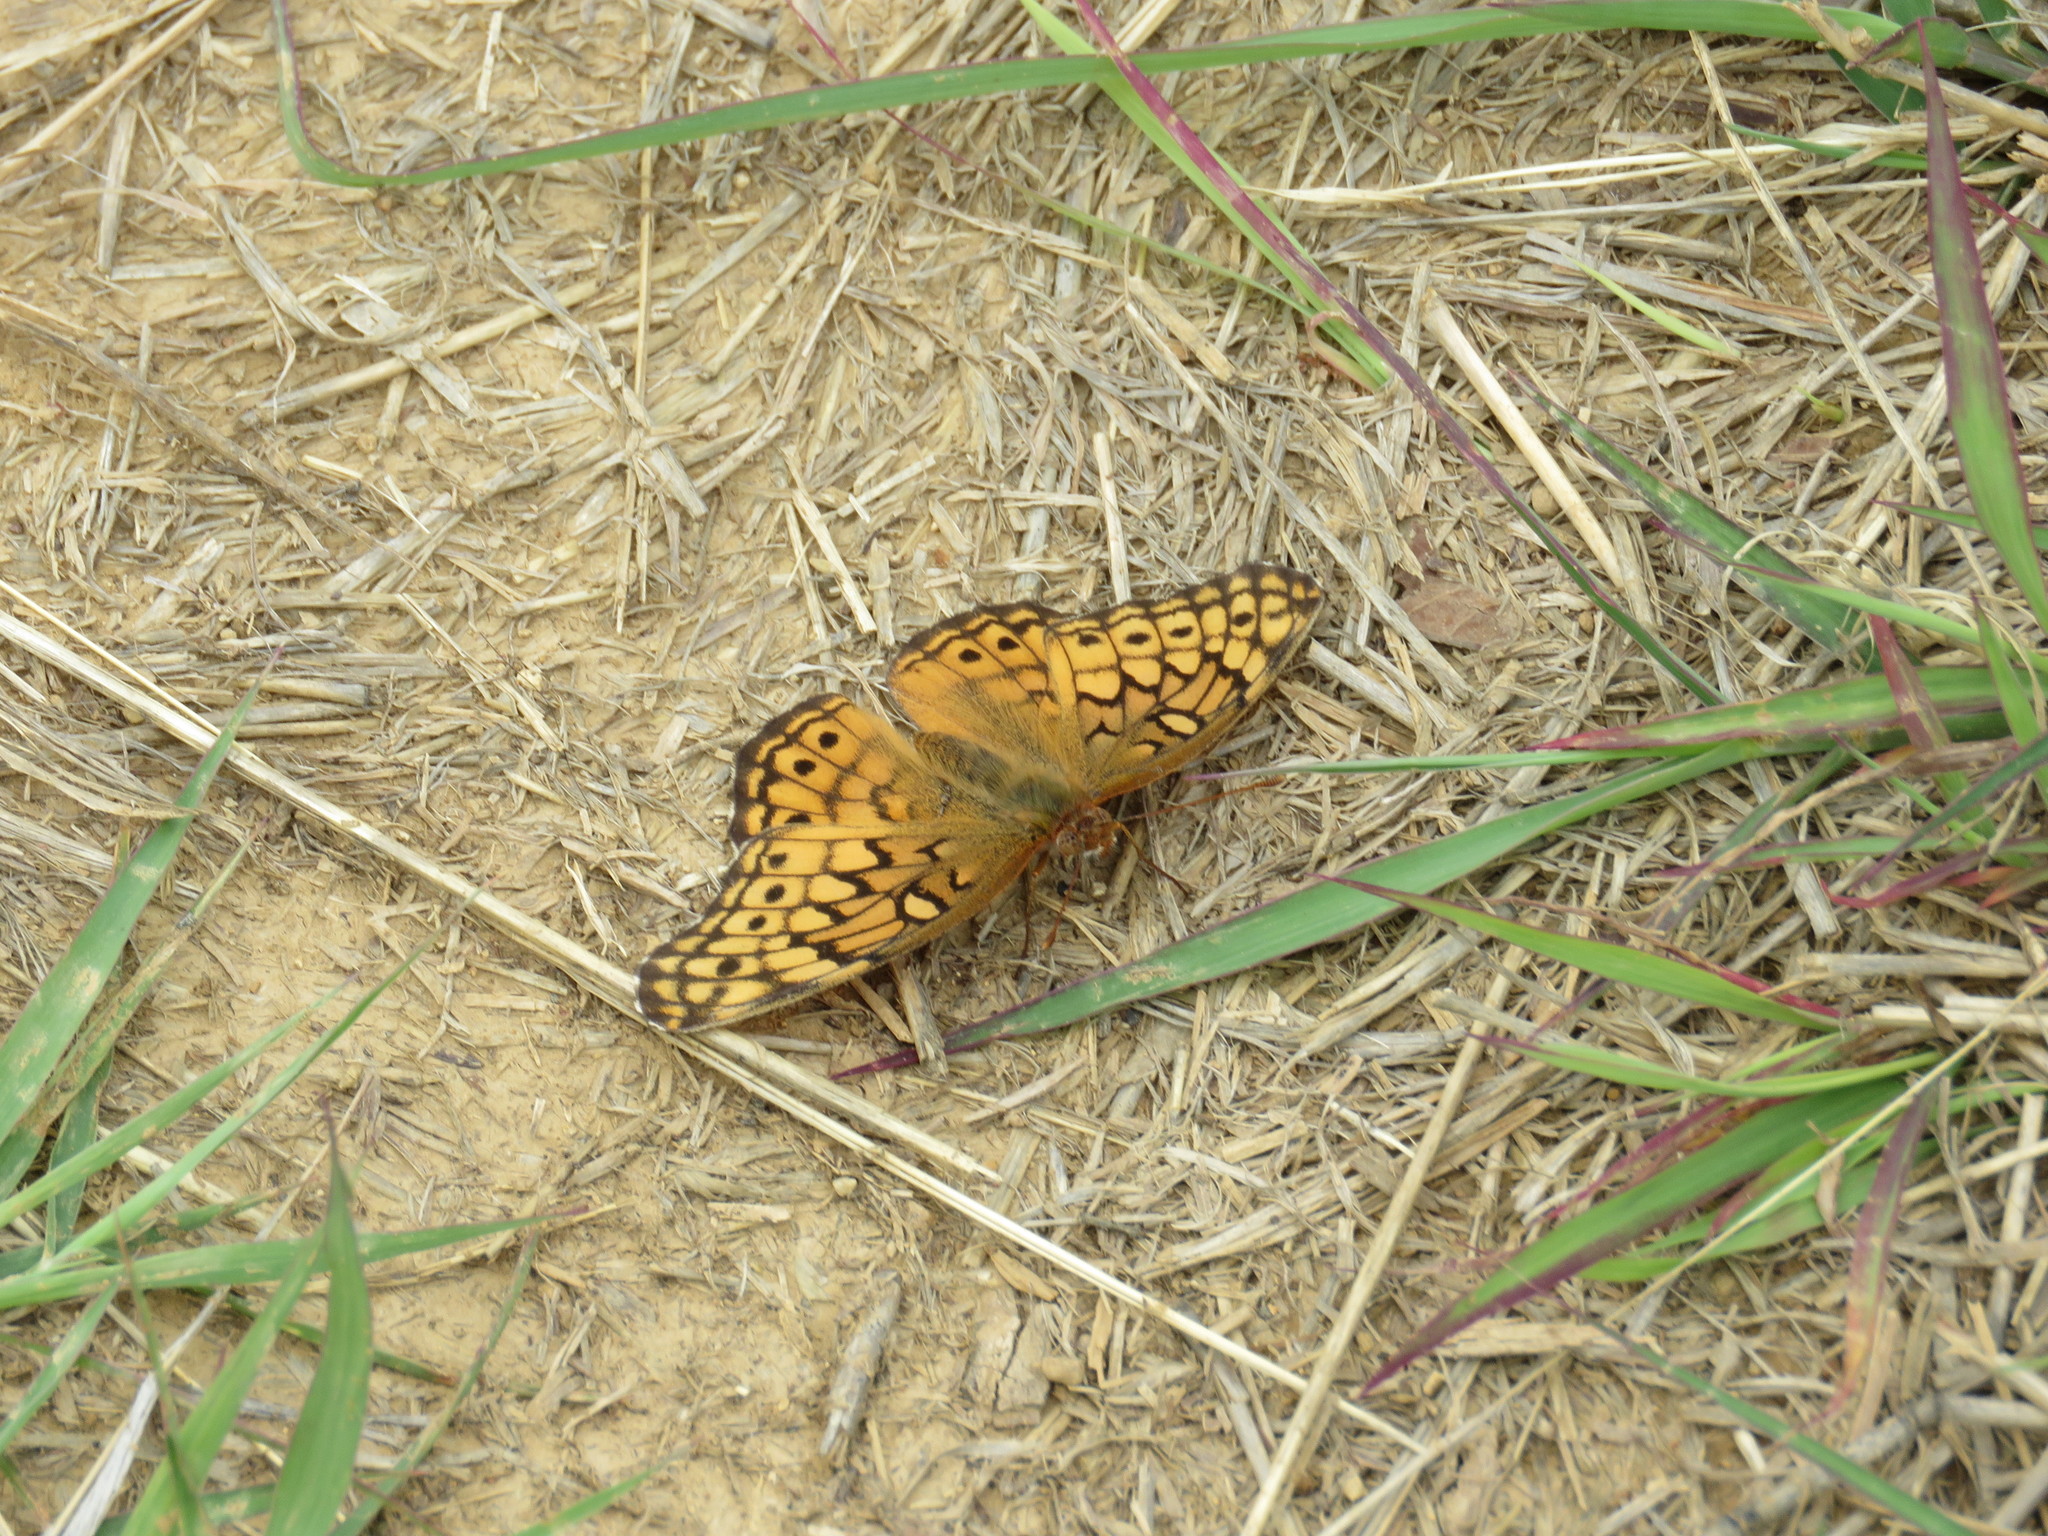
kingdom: Animalia
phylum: Arthropoda
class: Insecta
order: Lepidoptera
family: Nymphalidae
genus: Euptoieta
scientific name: Euptoieta claudia
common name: Variegated fritillary
